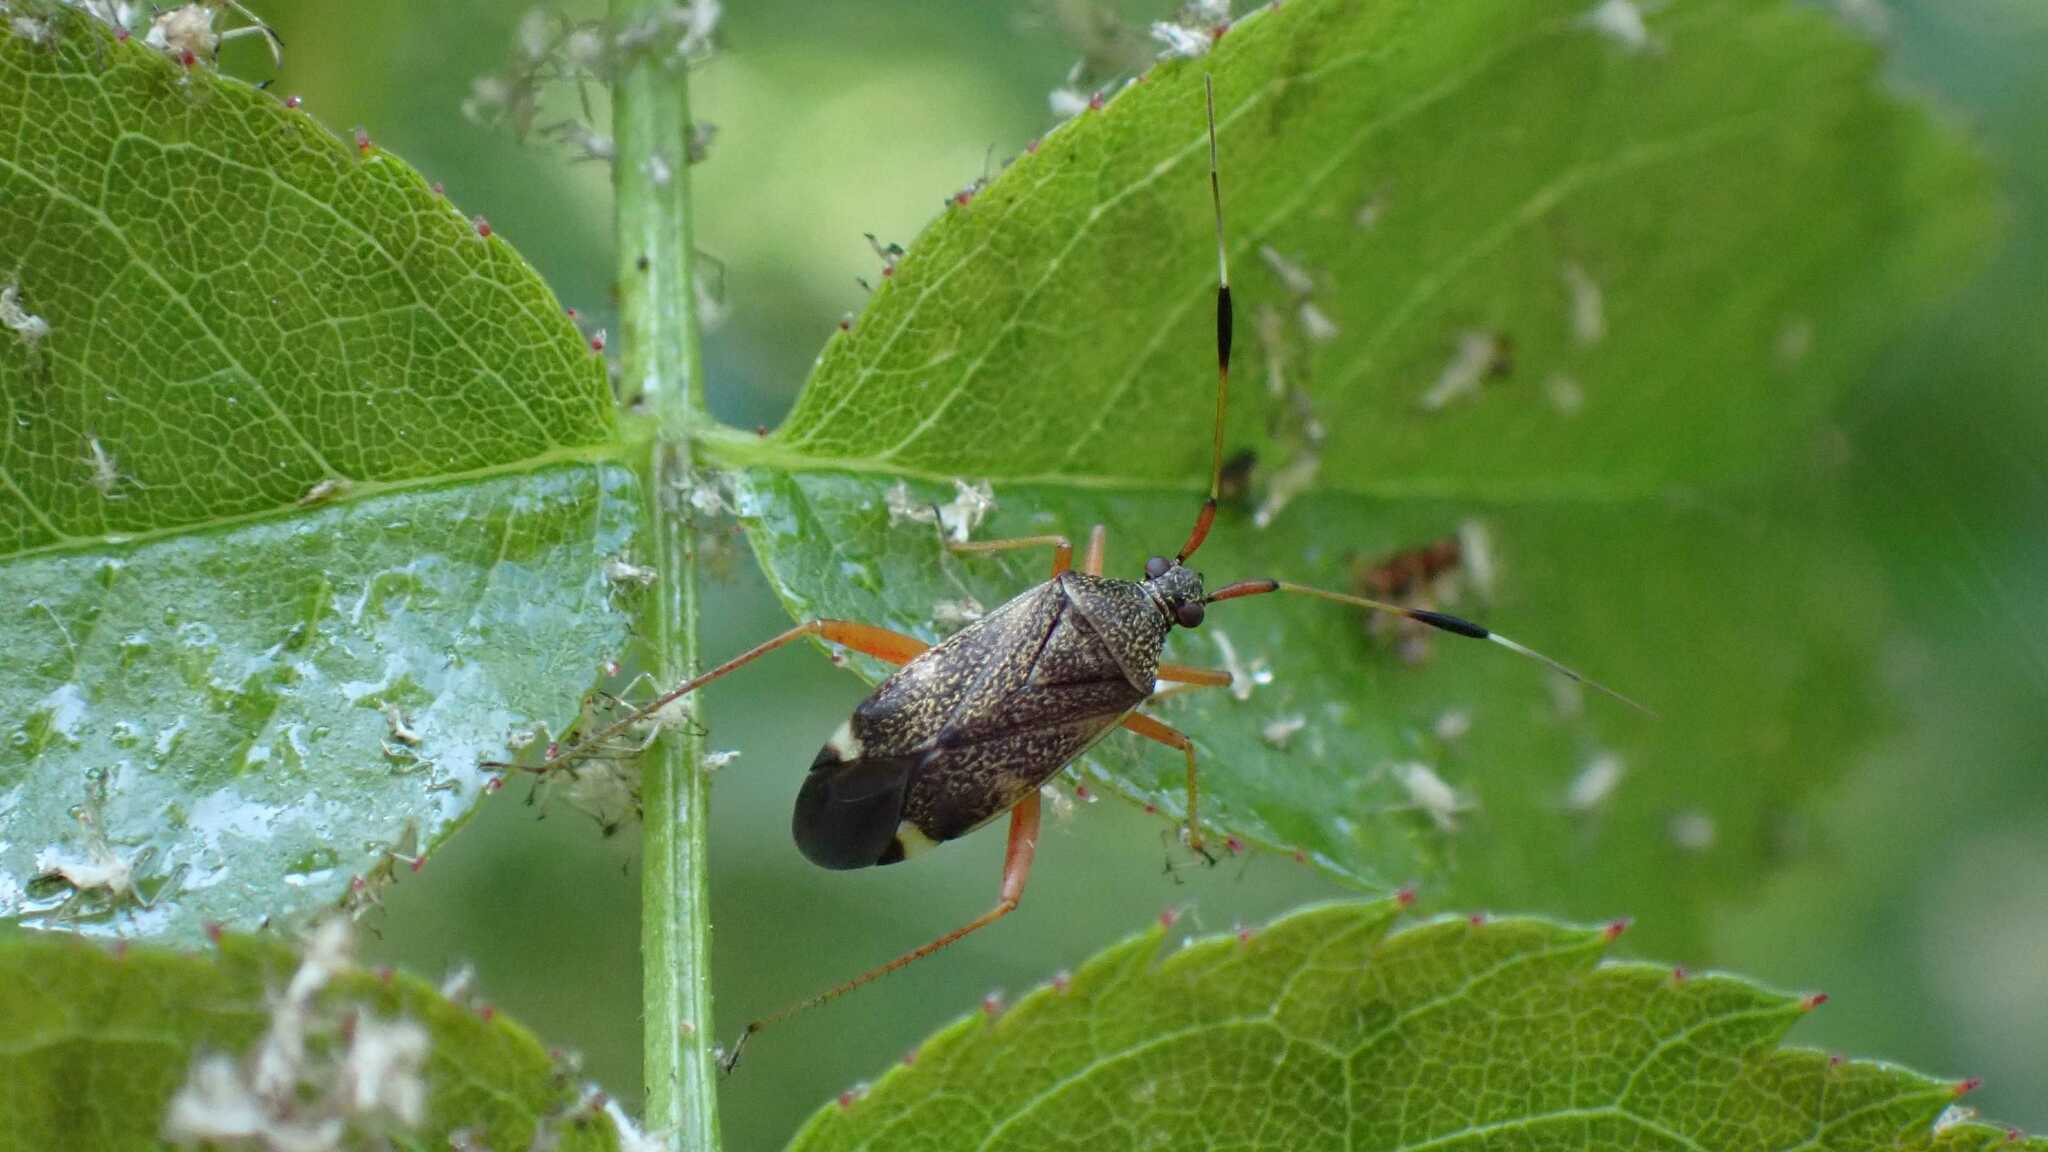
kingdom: Animalia
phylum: Arthropoda
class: Insecta
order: Hemiptera
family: Miridae
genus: Closterotomus
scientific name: Closterotomus biclavatus
